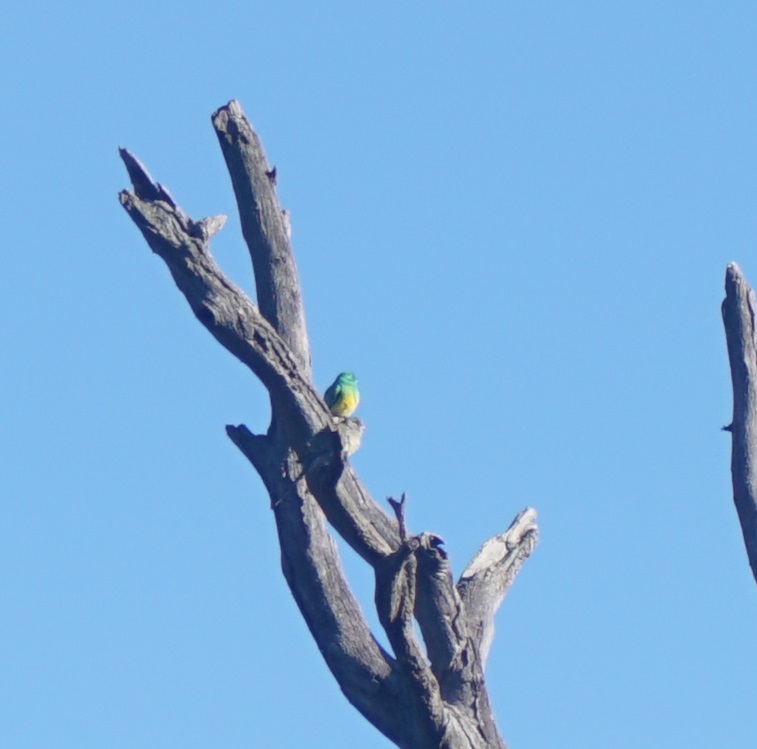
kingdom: Animalia
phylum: Chordata
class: Aves
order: Psittaciformes
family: Psittacidae
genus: Psephotus
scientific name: Psephotus haematonotus
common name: Red-rumped parrot
